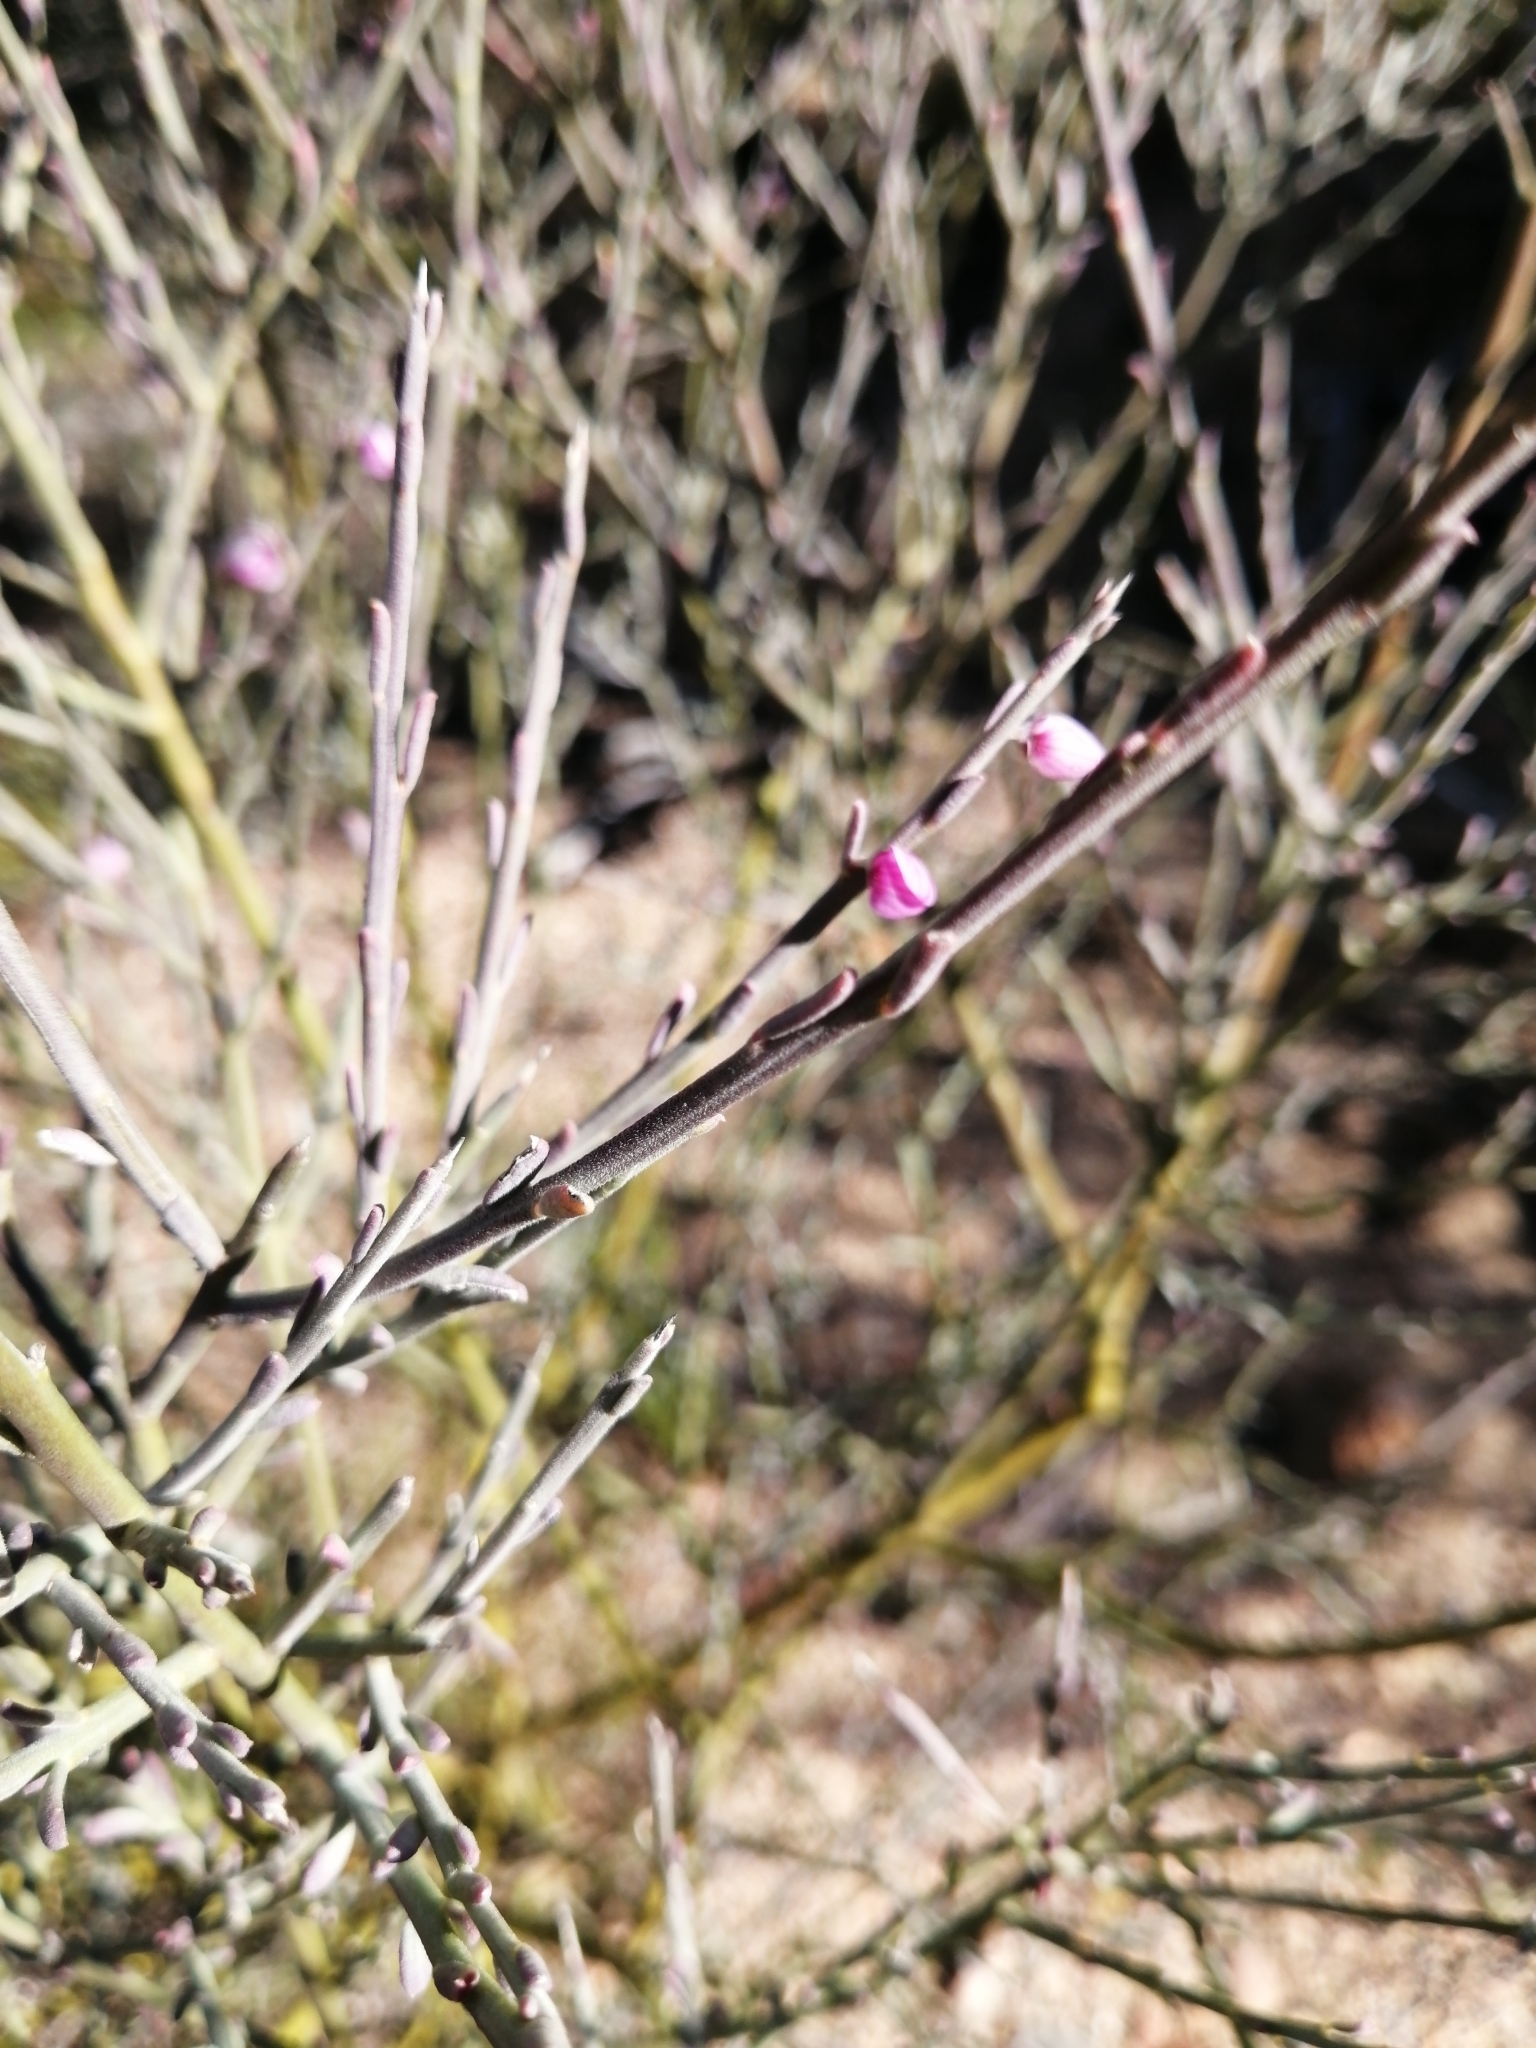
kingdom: Plantae
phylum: Tracheophyta
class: Magnoliopsida
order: Fabales
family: Polygalaceae
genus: Muraltia
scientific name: Muraltia spinosa
